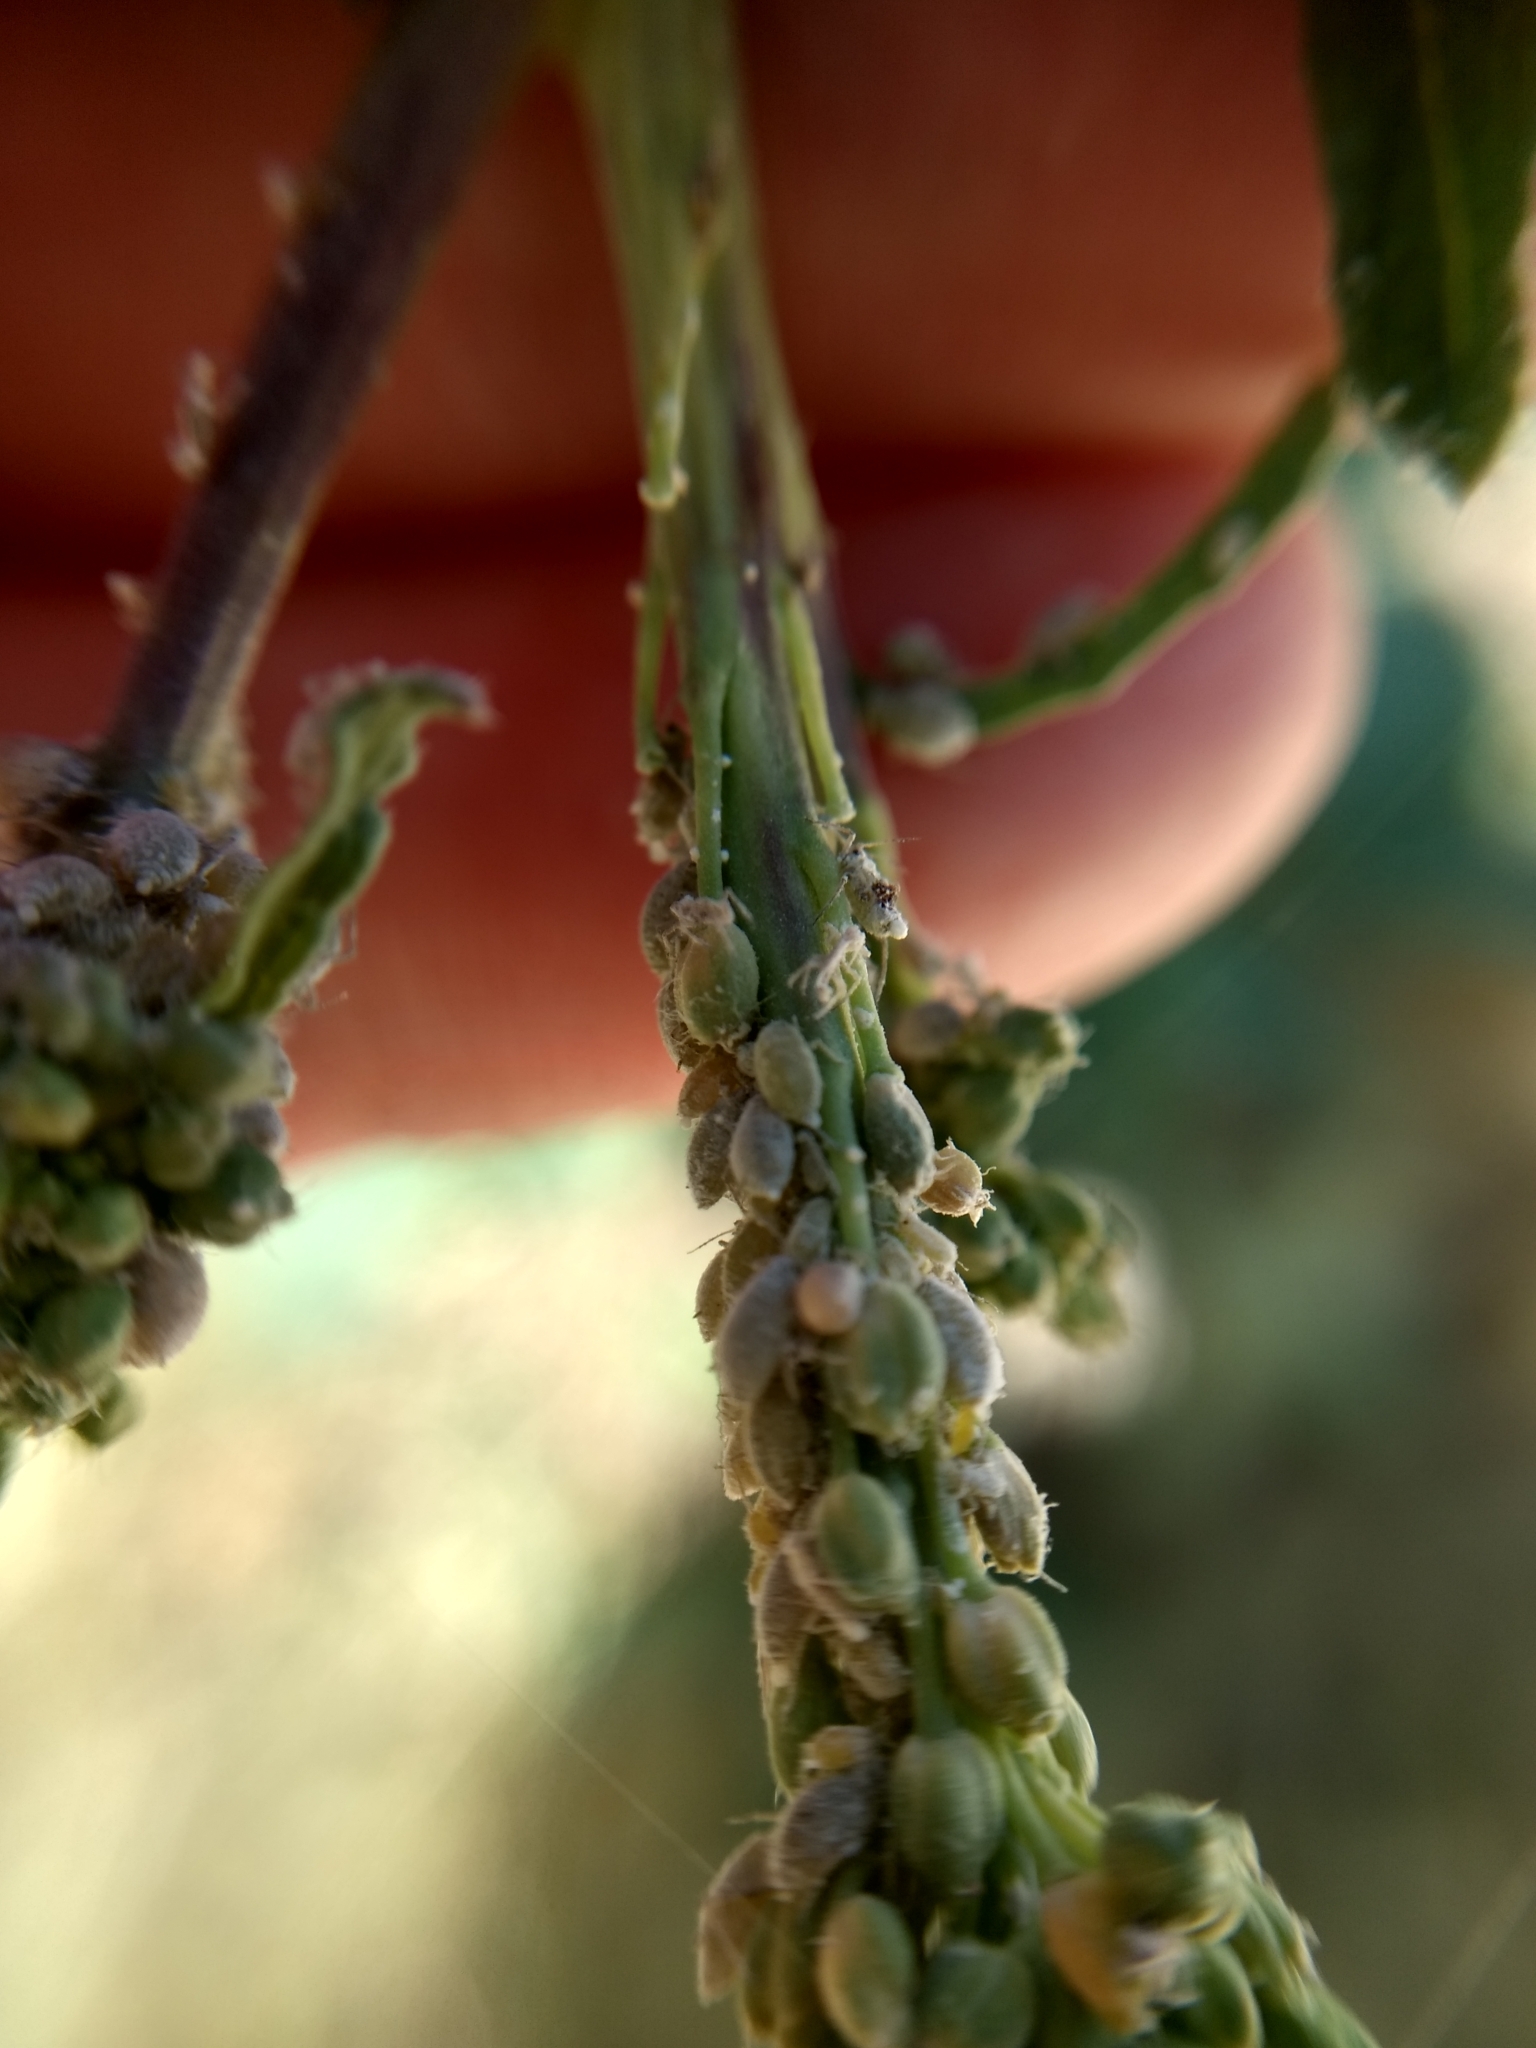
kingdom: Animalia
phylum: Arthropoda
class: Insecta
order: Hemiptera
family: Aphididae
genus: Brevicoryne
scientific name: Brevicoryne brassicae
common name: Cabbage aphid
